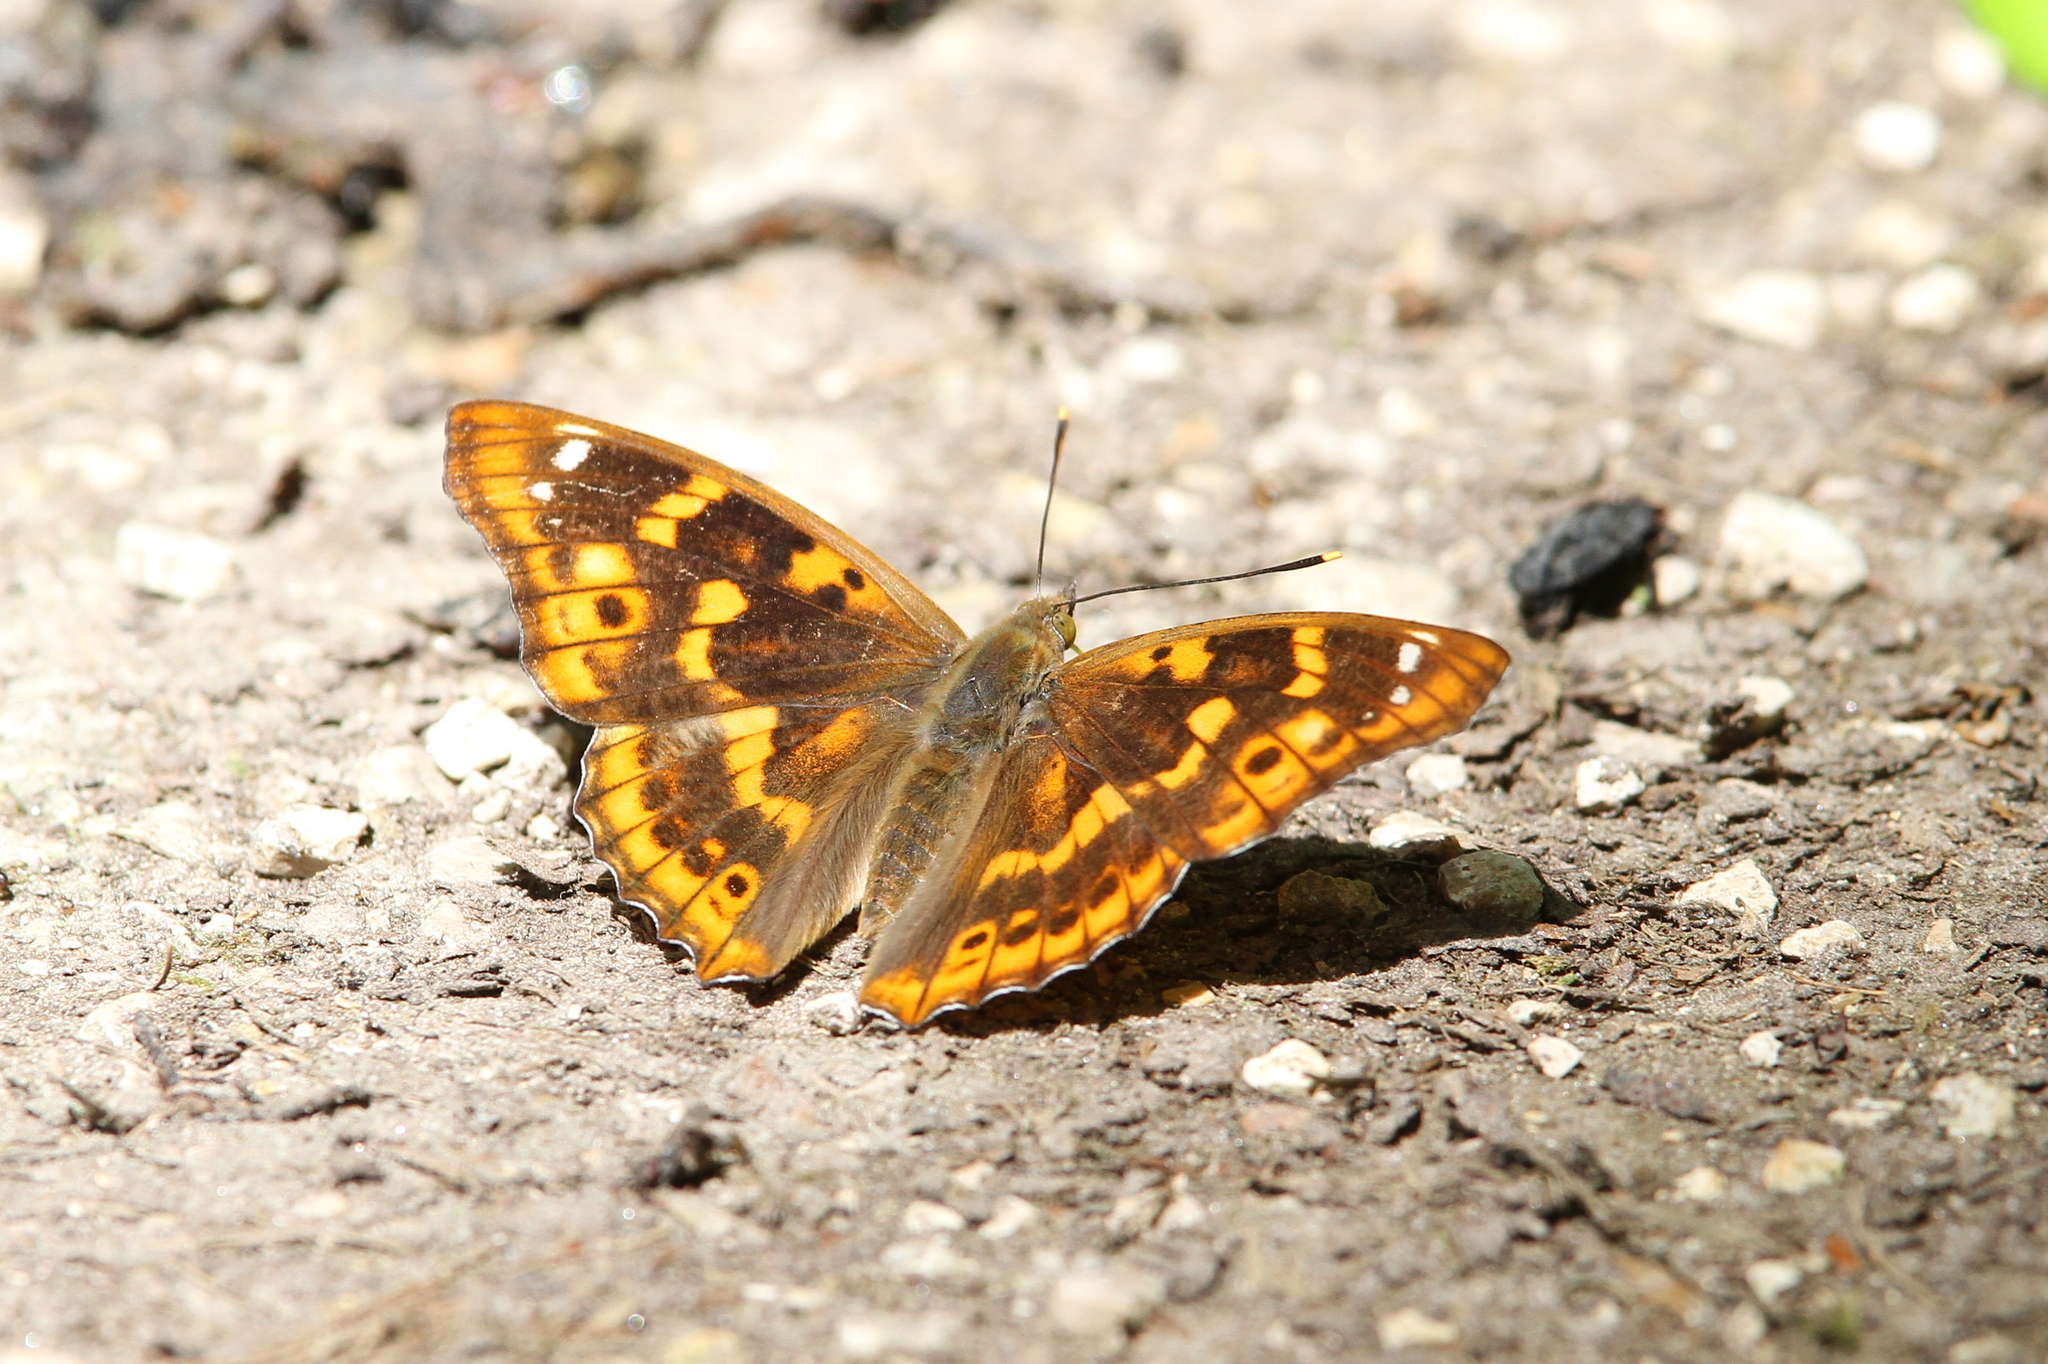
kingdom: Animalia
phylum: Arthropoda
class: Insecta
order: Lepidoptera
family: Nymphalidae
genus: Apatura
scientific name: Apatura ilia
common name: Lesser purple emperor
